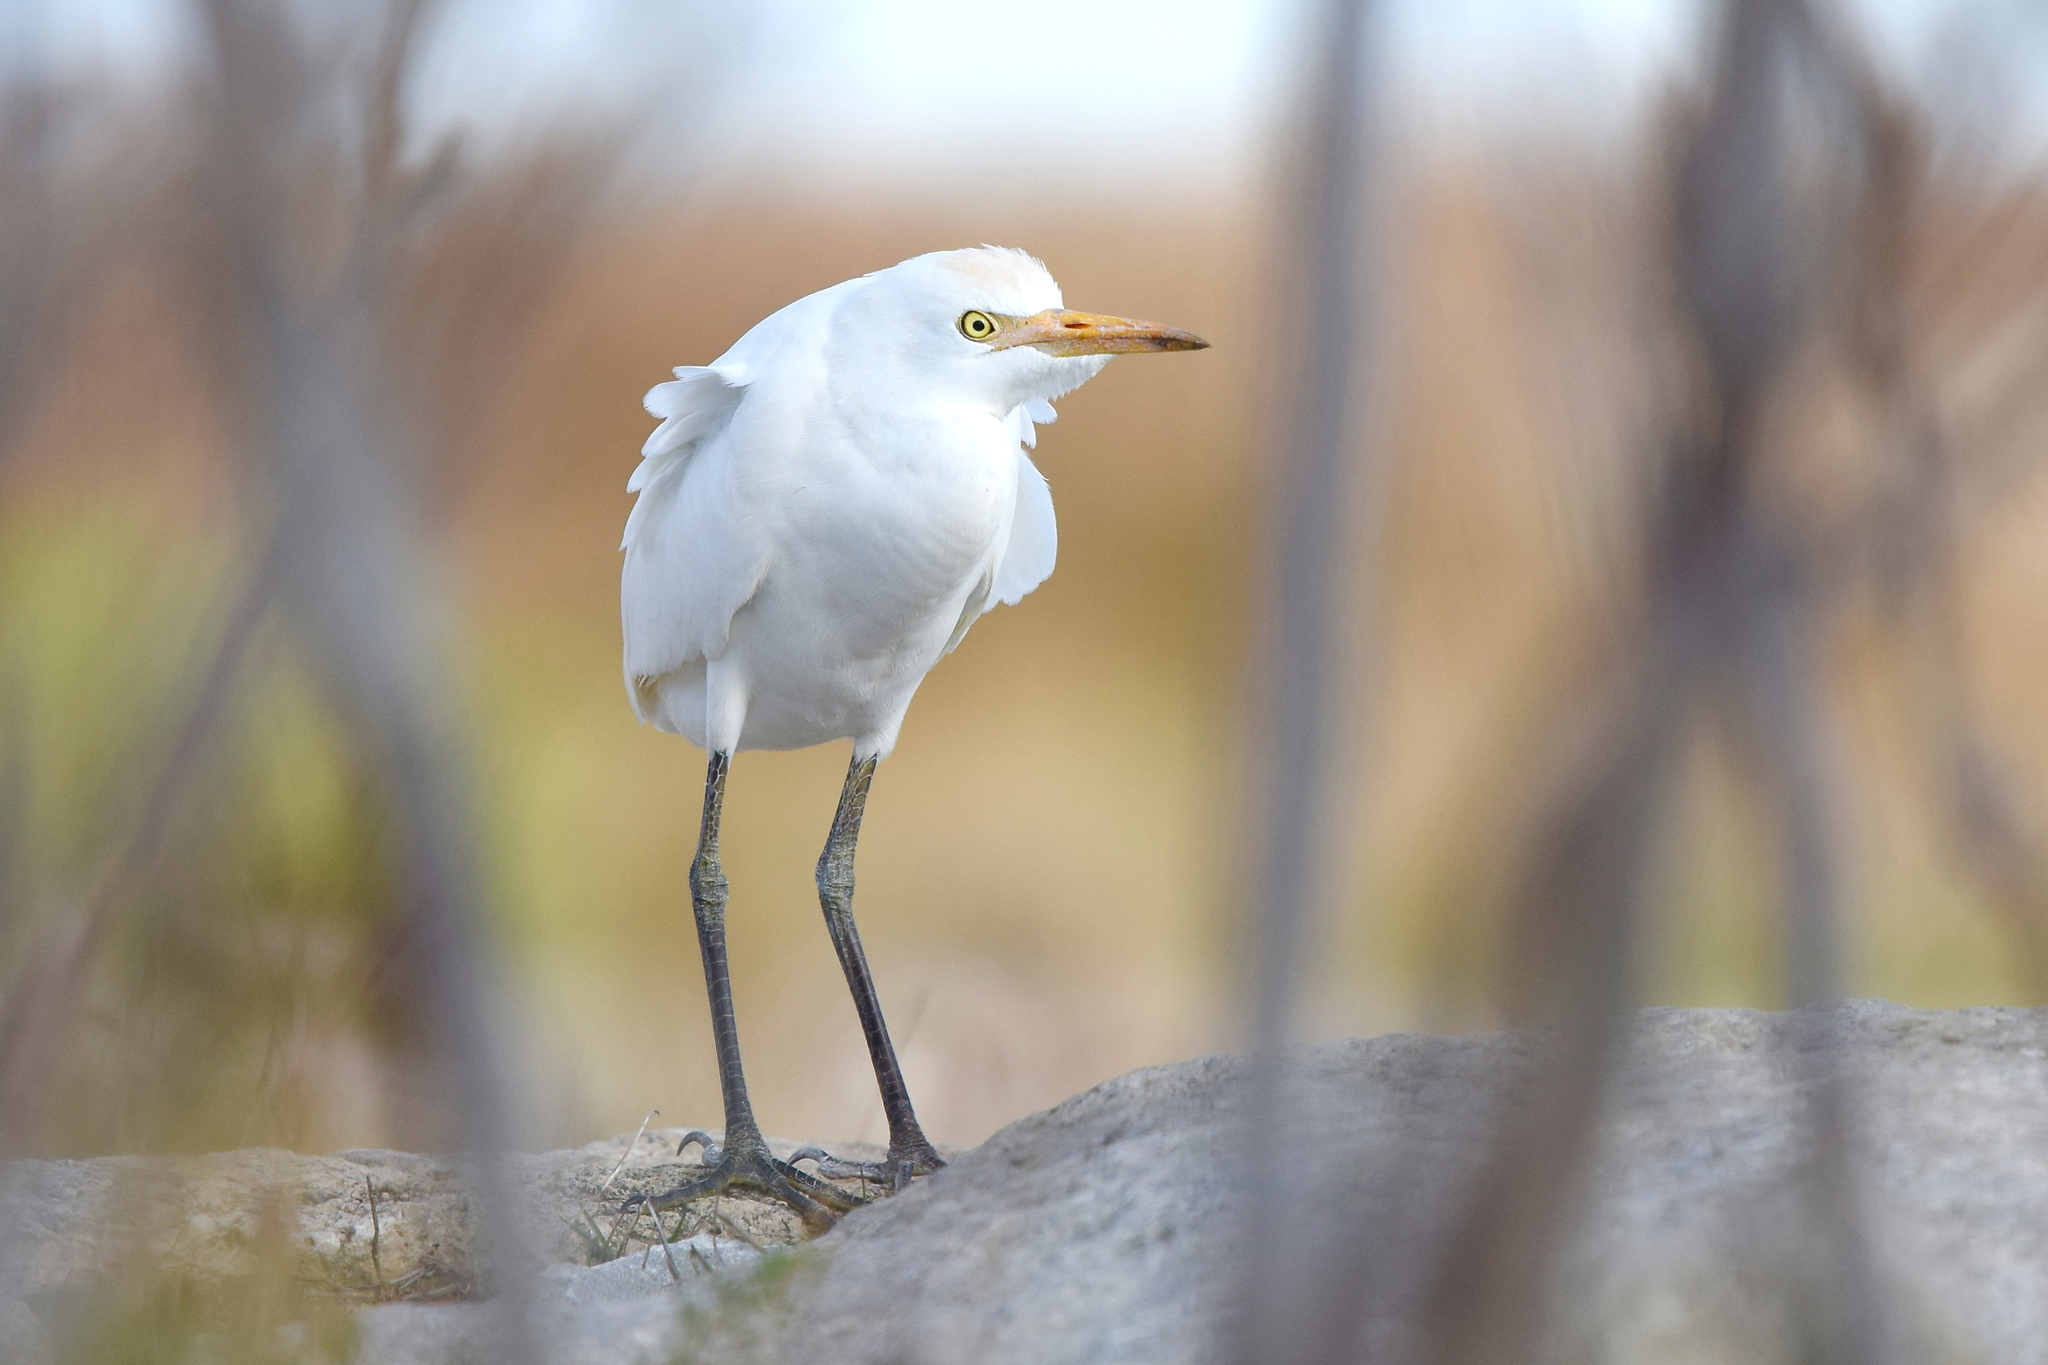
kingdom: Animalia
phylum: Chordata
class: Aves
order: Pelecaniformes
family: Ardeidae
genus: Bubulcus
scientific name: Bubulcus ibis
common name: Cattle egret
